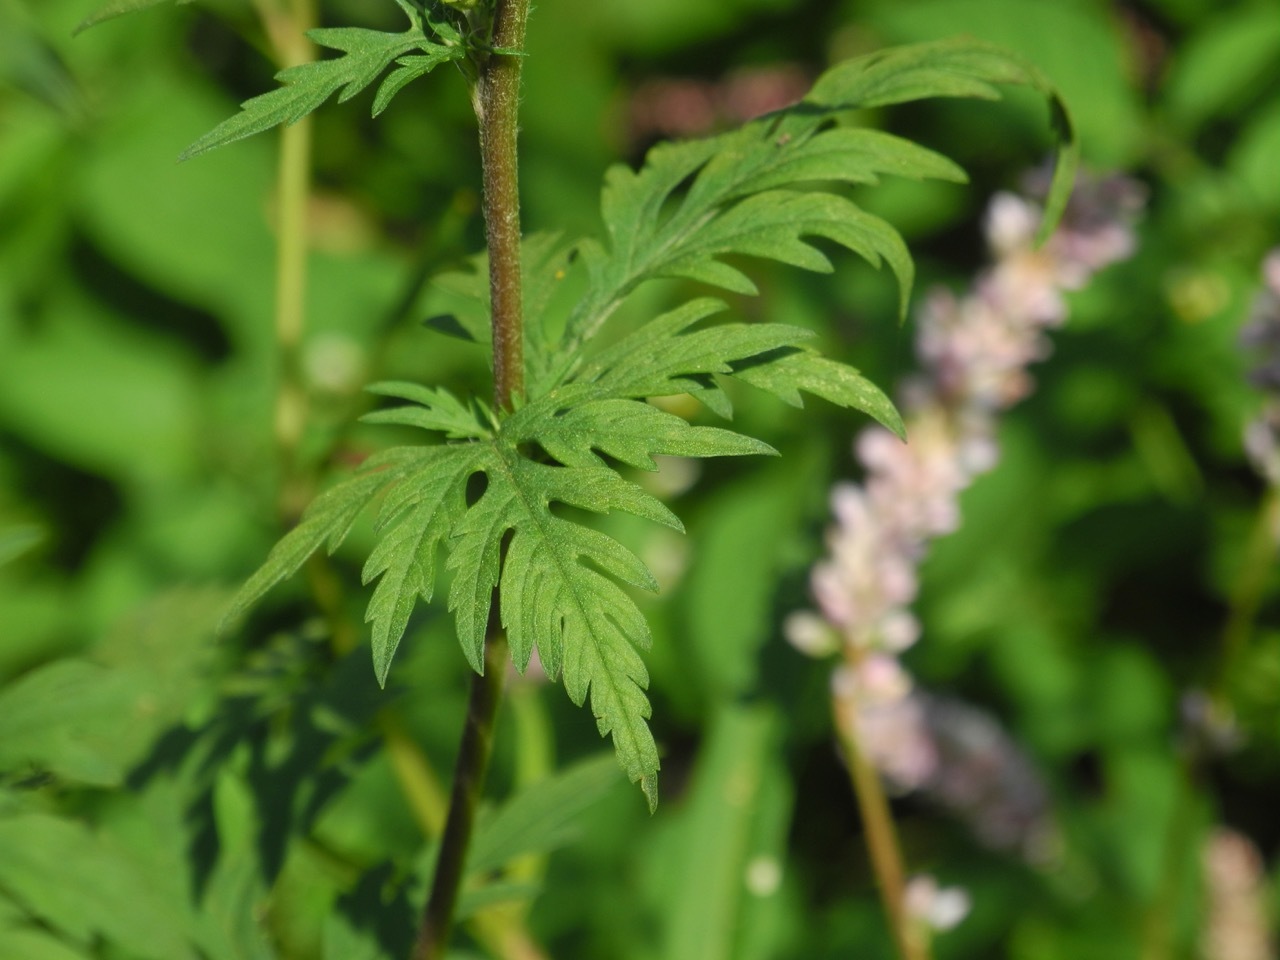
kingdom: Plantae
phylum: Tracheophyta
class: Magnoliopsida
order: Asterales
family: Asteraceae
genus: Ambrosia
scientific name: Ambrosia artemisiifolia
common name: Annual ragweed
